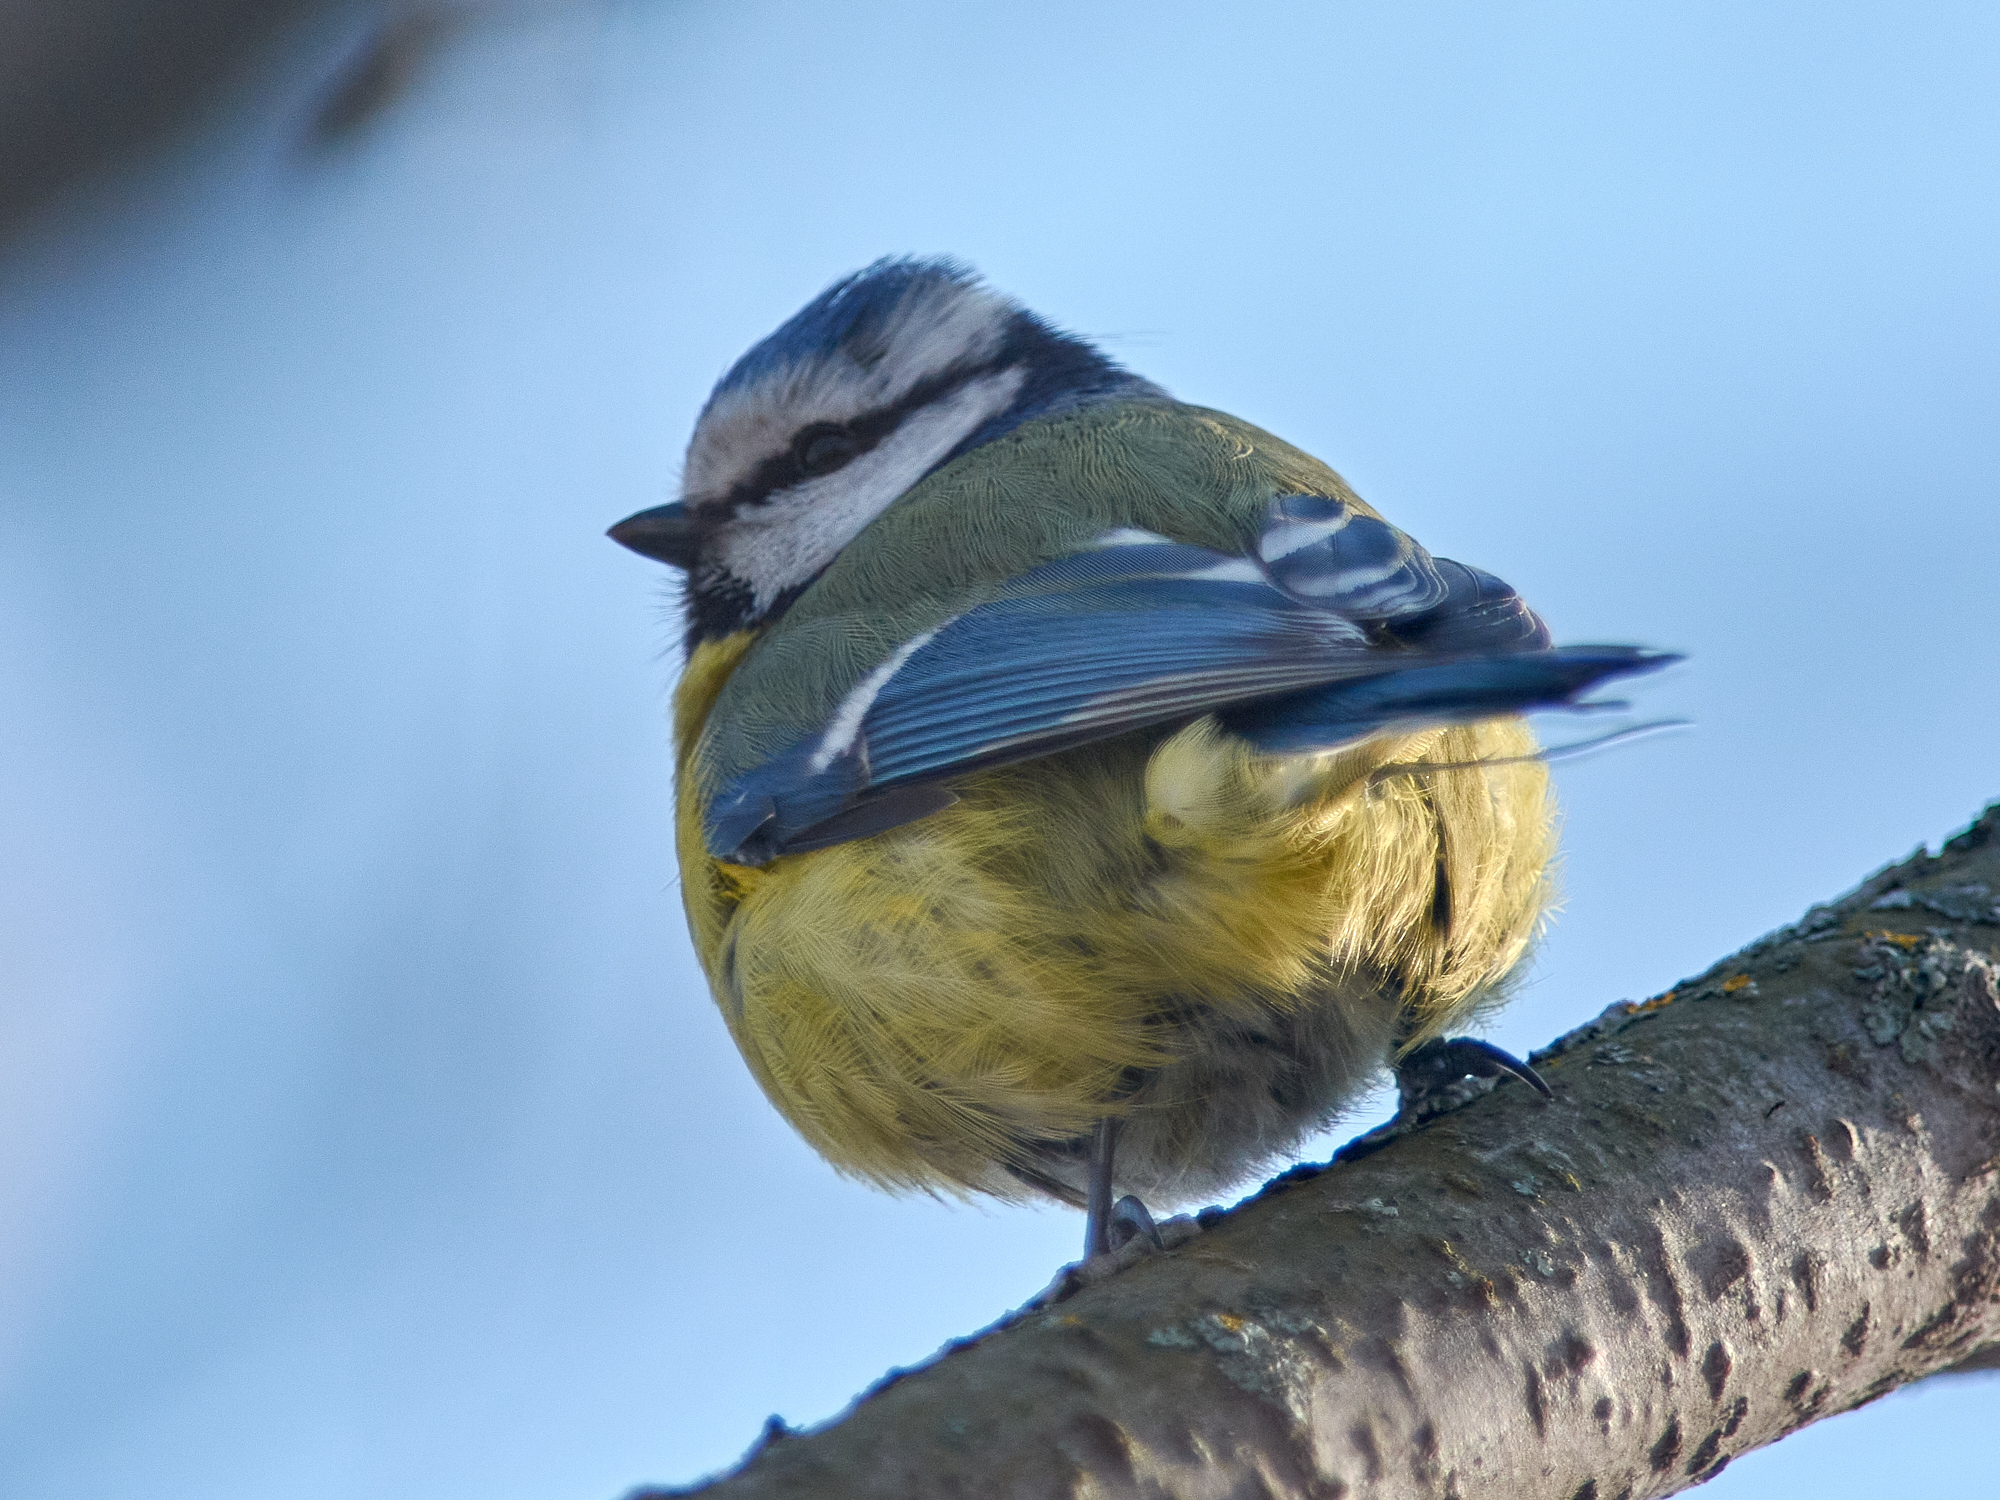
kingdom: Animalia
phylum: Chordata
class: Aves
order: Passeriformes
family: Paridae
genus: Cyanistes
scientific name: Cyanistes caeruleus
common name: Eurasian blue tit
